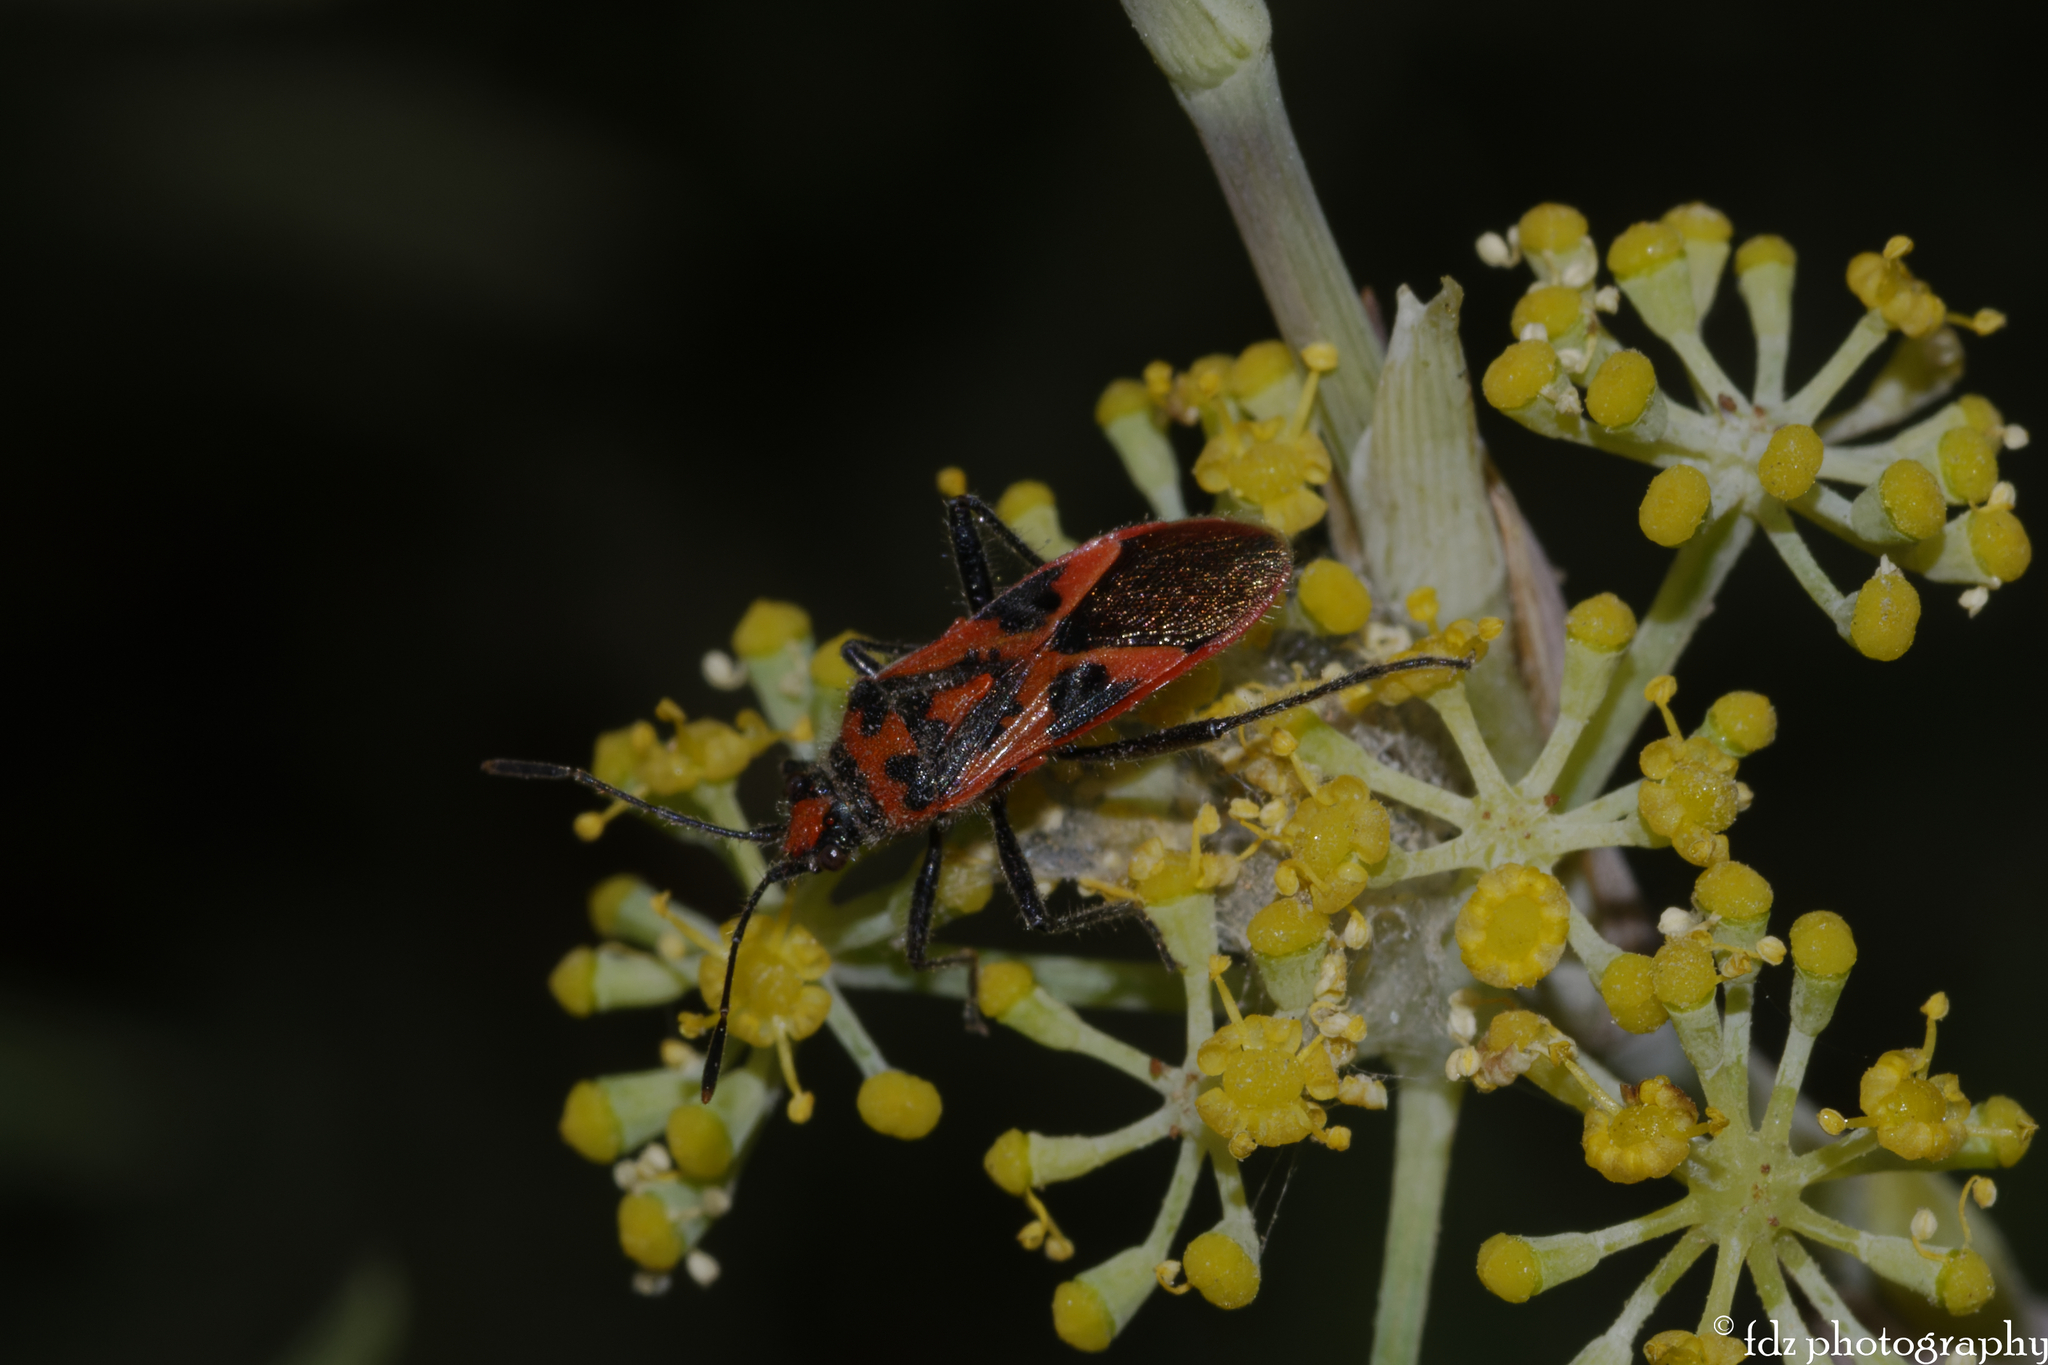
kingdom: Animalia
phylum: Arthropoda
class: Insecta
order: Hemiptera
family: Rhopalidae
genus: Corizus
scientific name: Corizus hyoscyami
